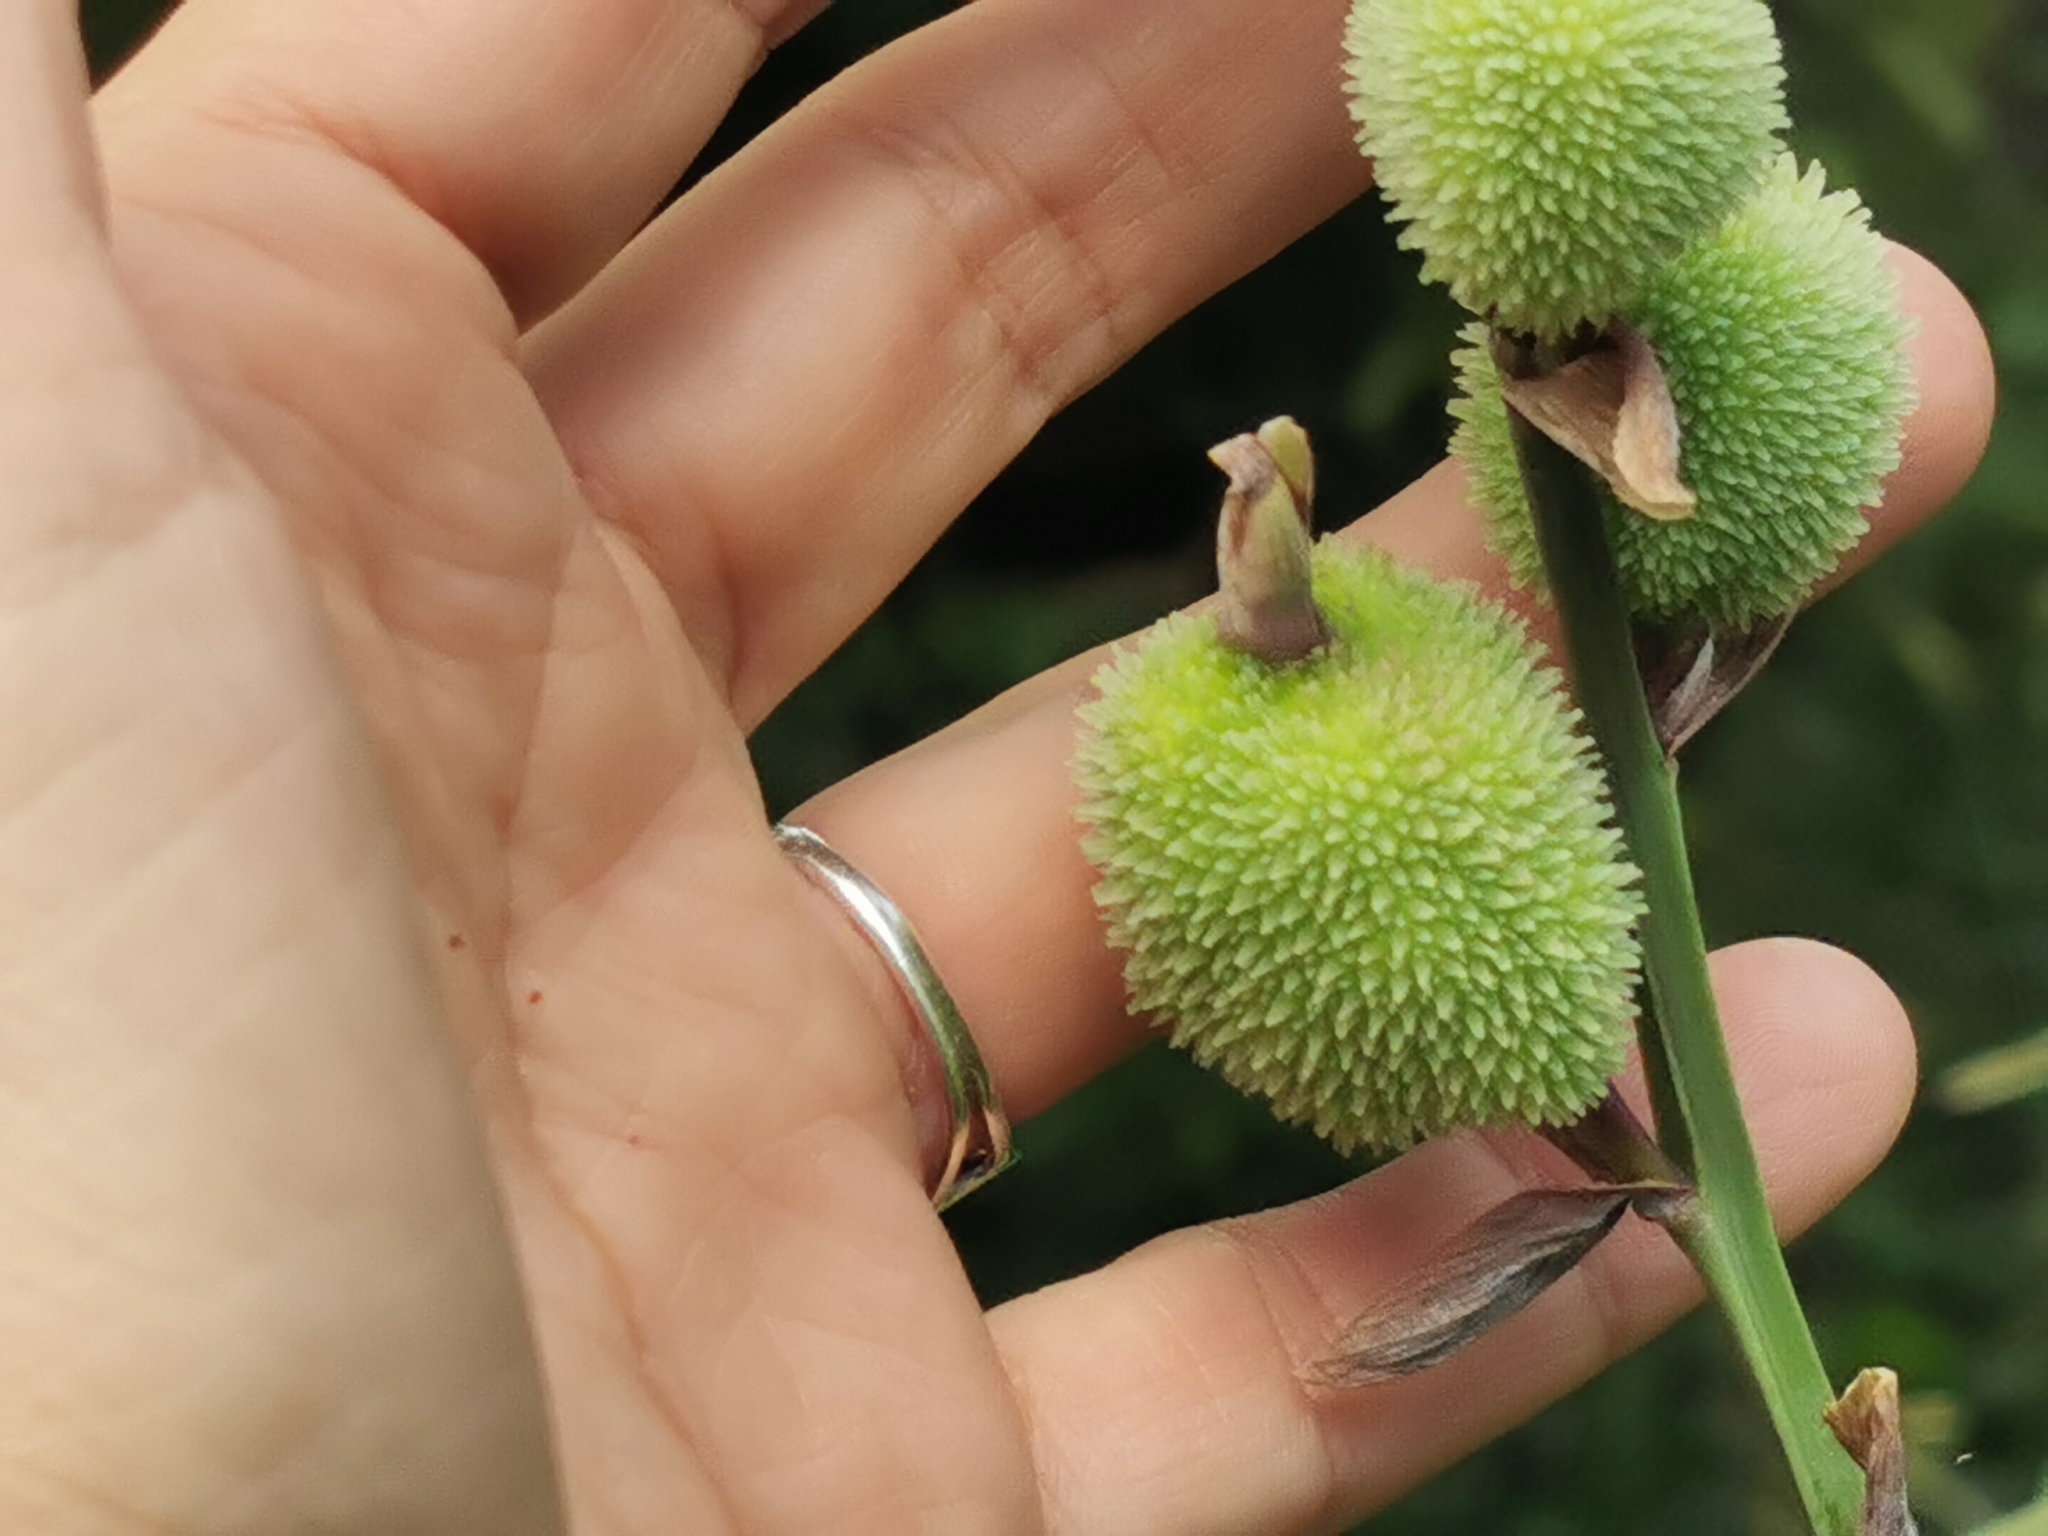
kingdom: Plantae
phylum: Tracheophyta
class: Liliopsida
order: Zingiberales
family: Cannaceae
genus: Canna
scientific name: Canna indica
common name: Indian shot
